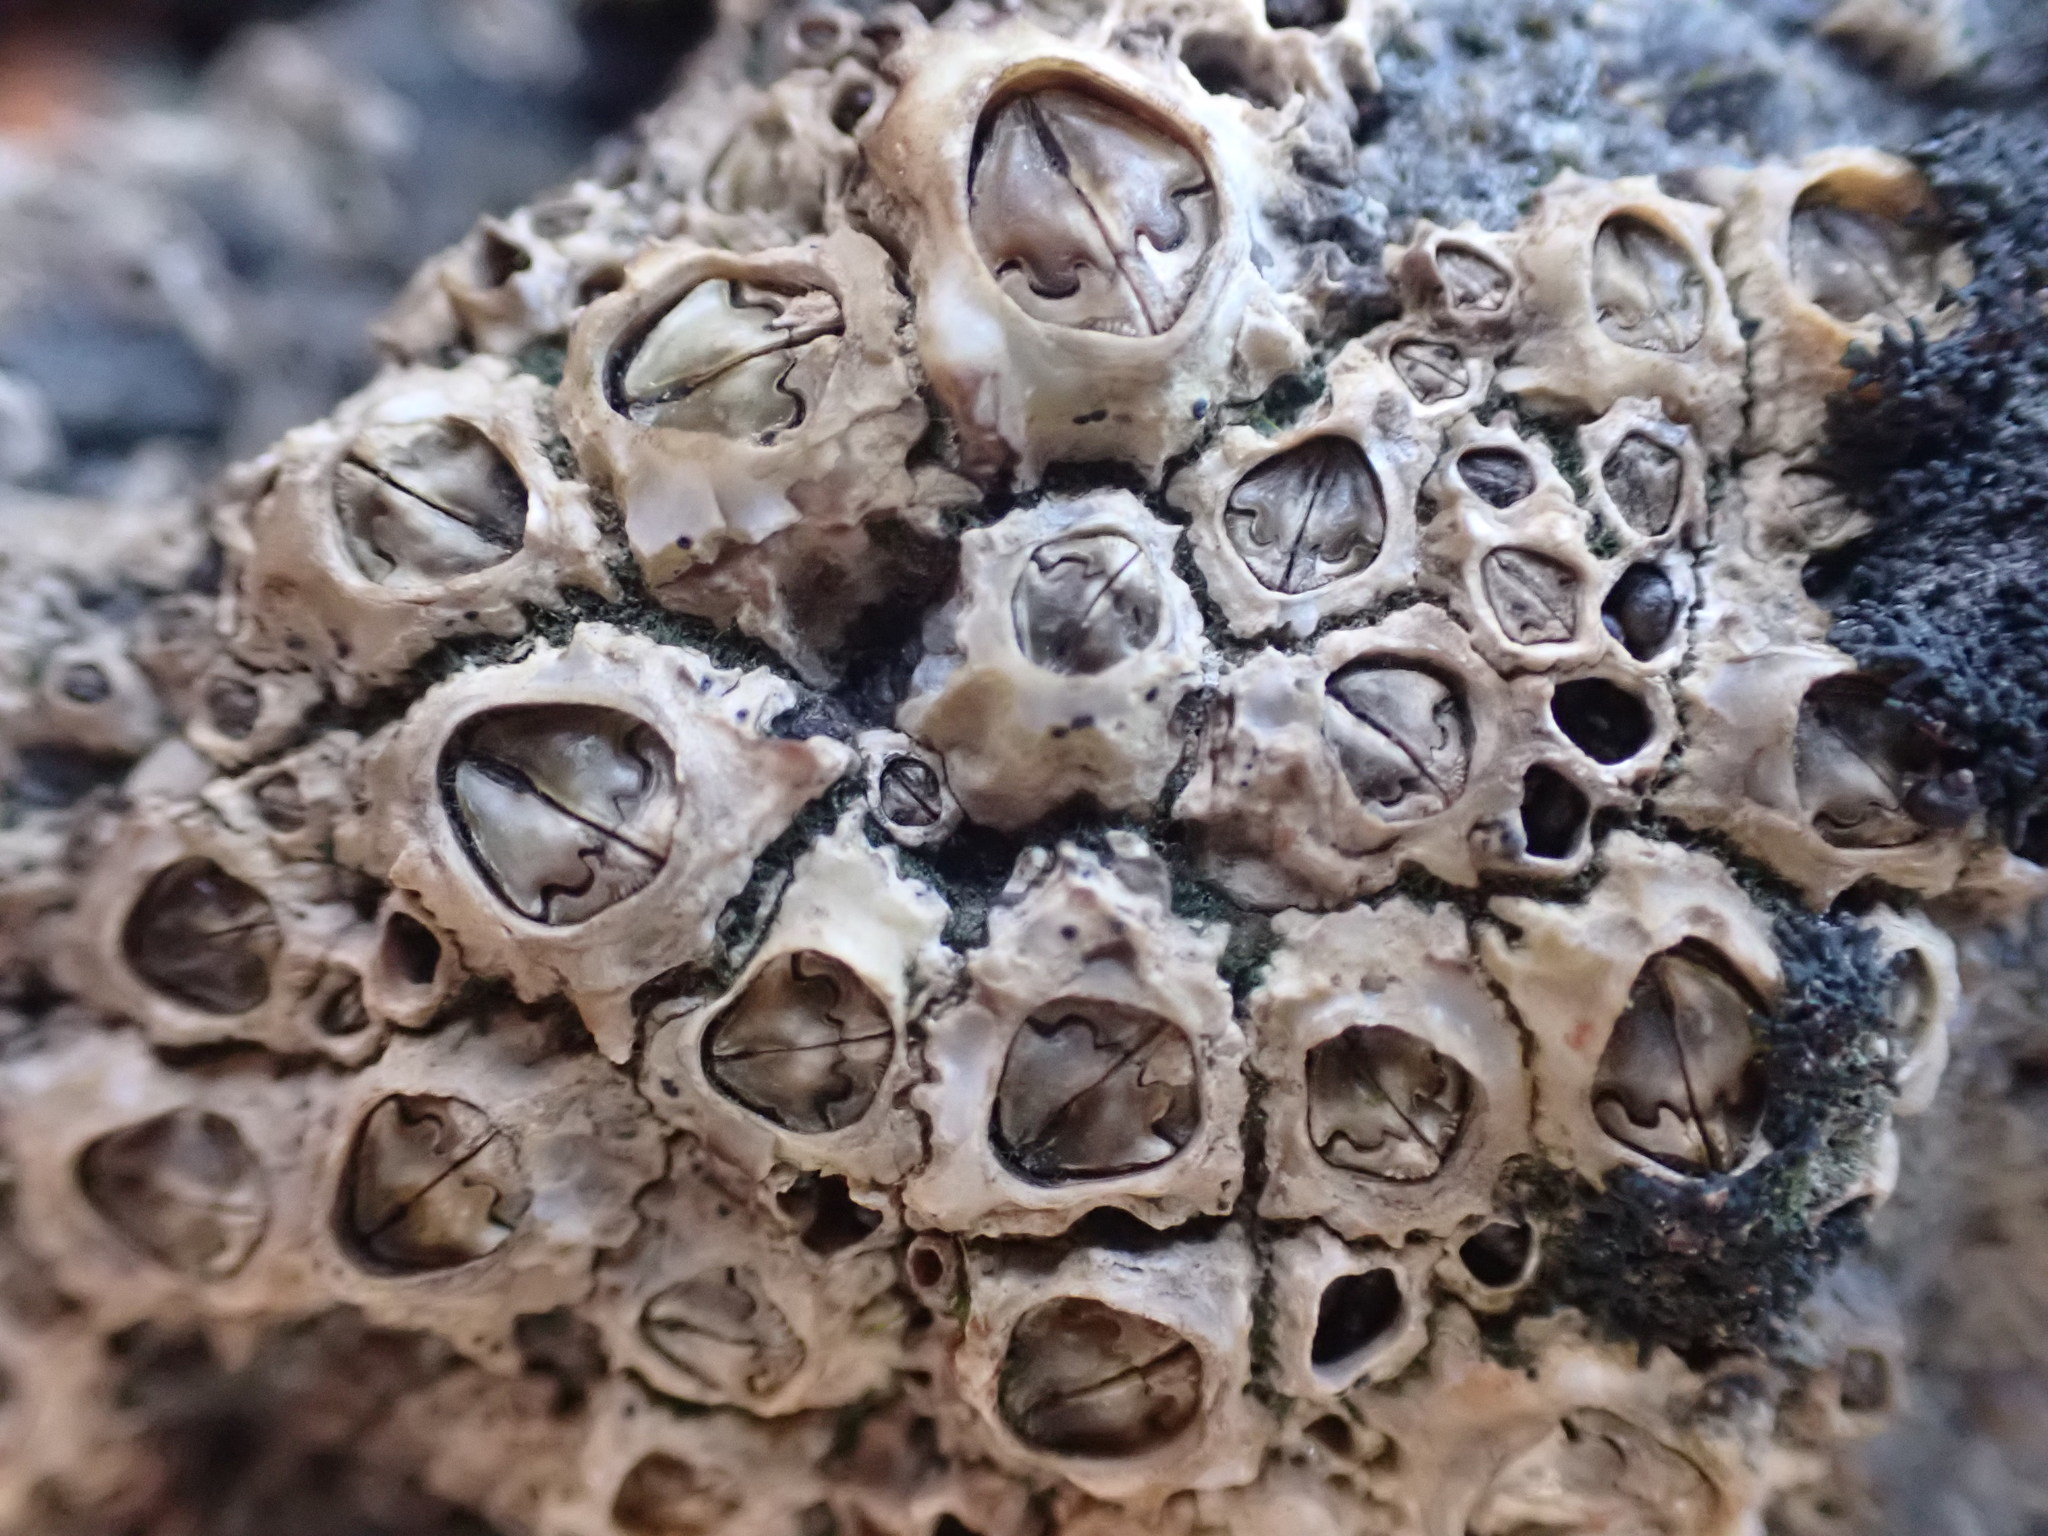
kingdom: Animalia
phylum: Arthropoda
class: Maxillopoda
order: Sessilia
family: Chthamalidae
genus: Chamaesipho
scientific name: Chamaesipho brunnea
